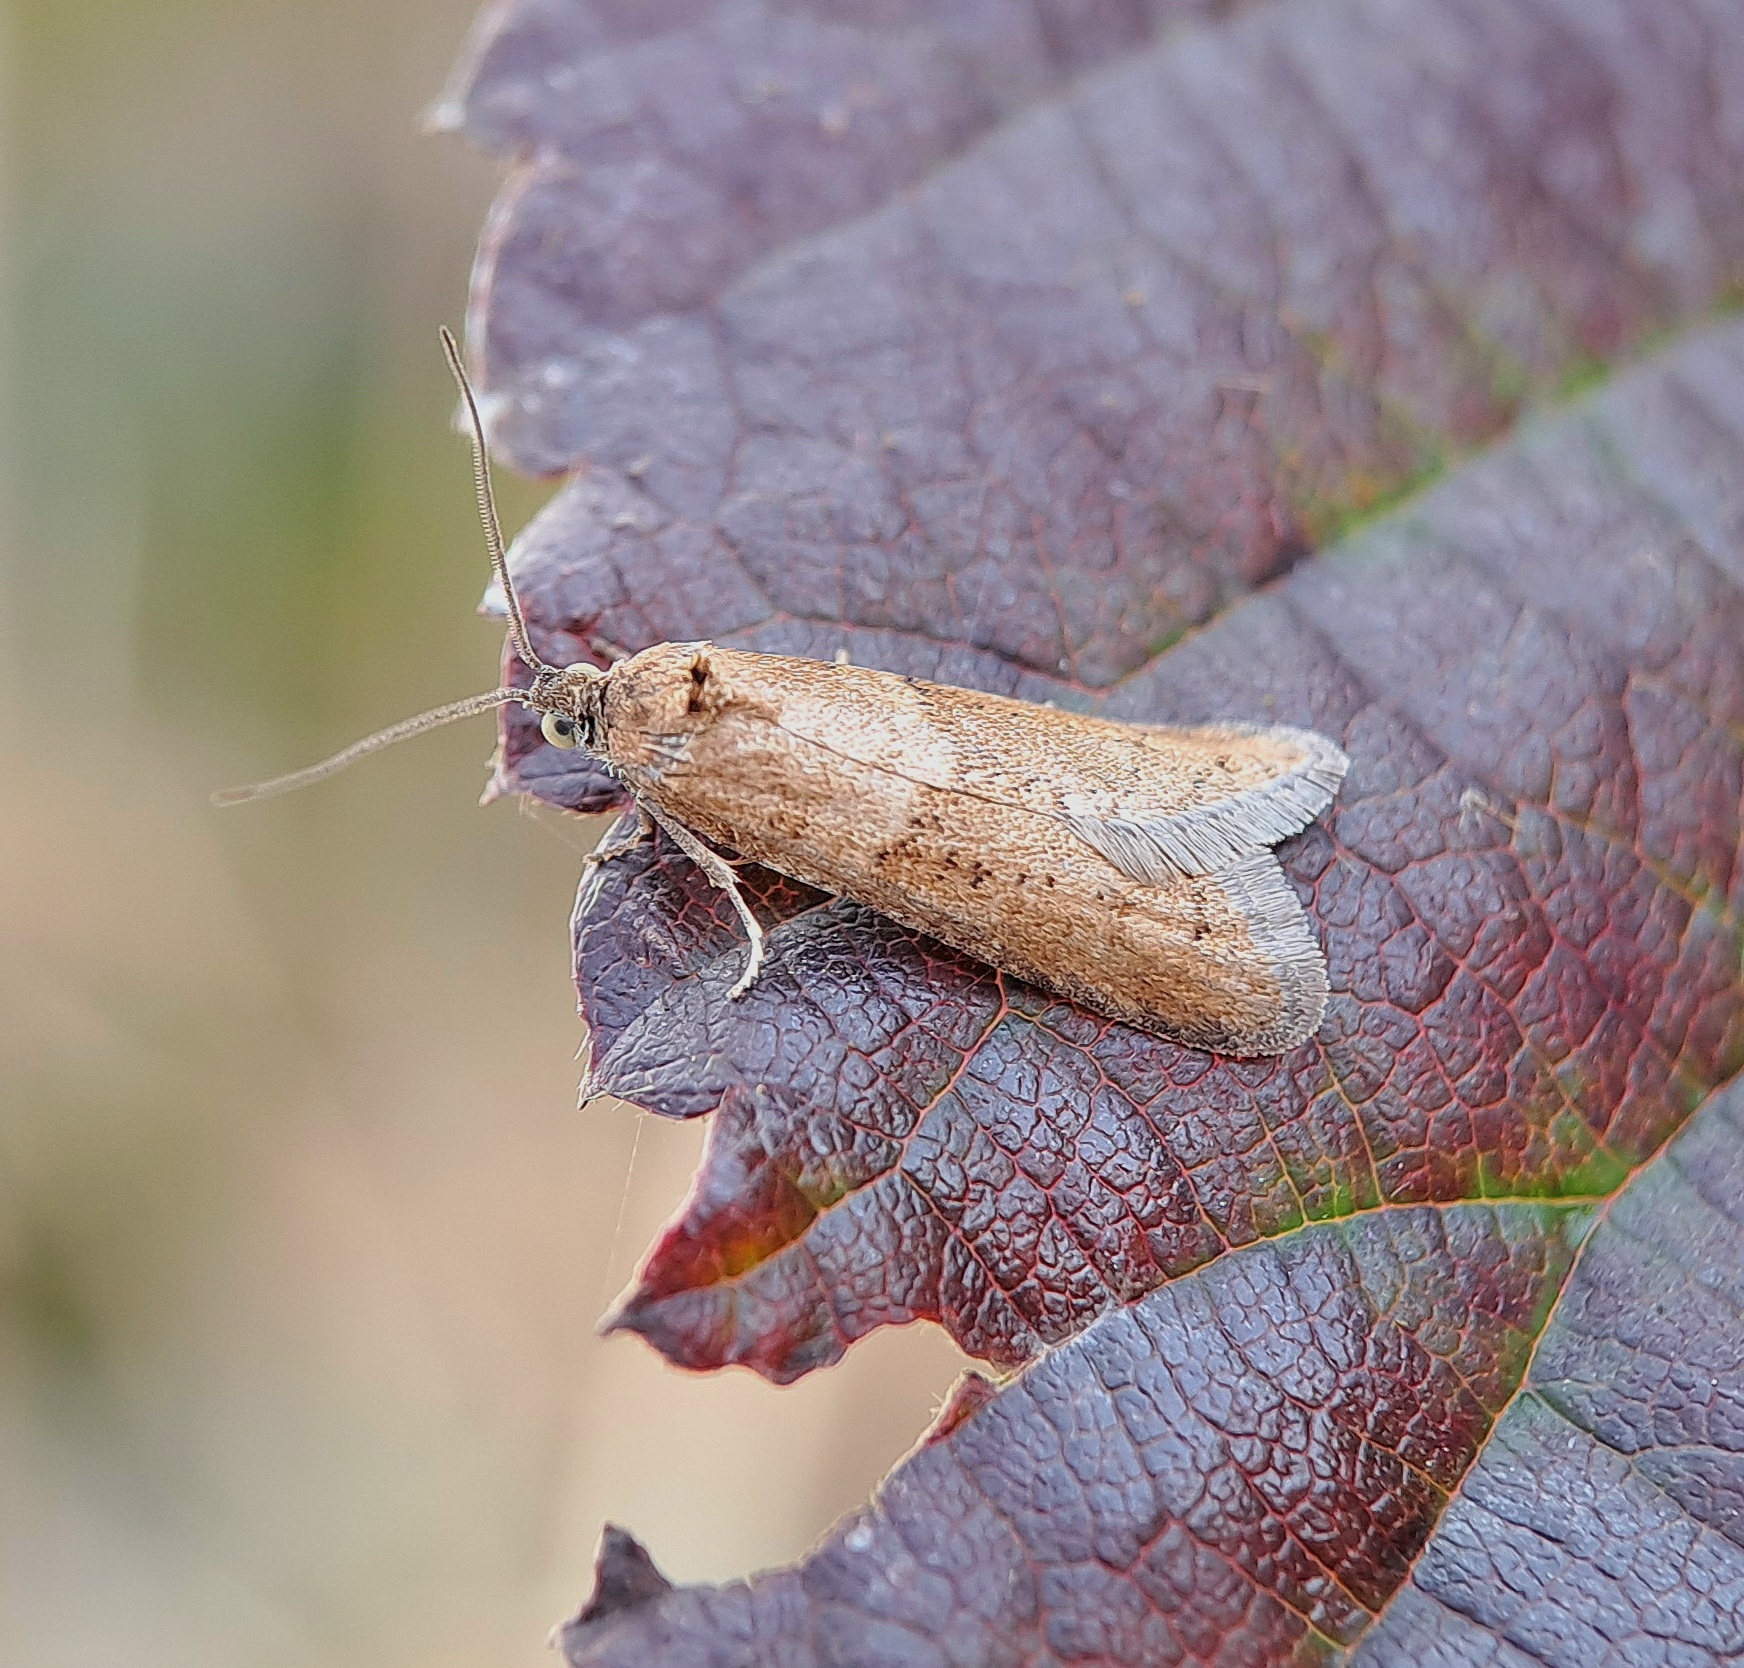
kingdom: Animalia
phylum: Arthropoda
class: Insecta
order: Lepidoptera
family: Tortricidae
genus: Tortricodes
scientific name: Tortricodes alternella
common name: Winter shade
